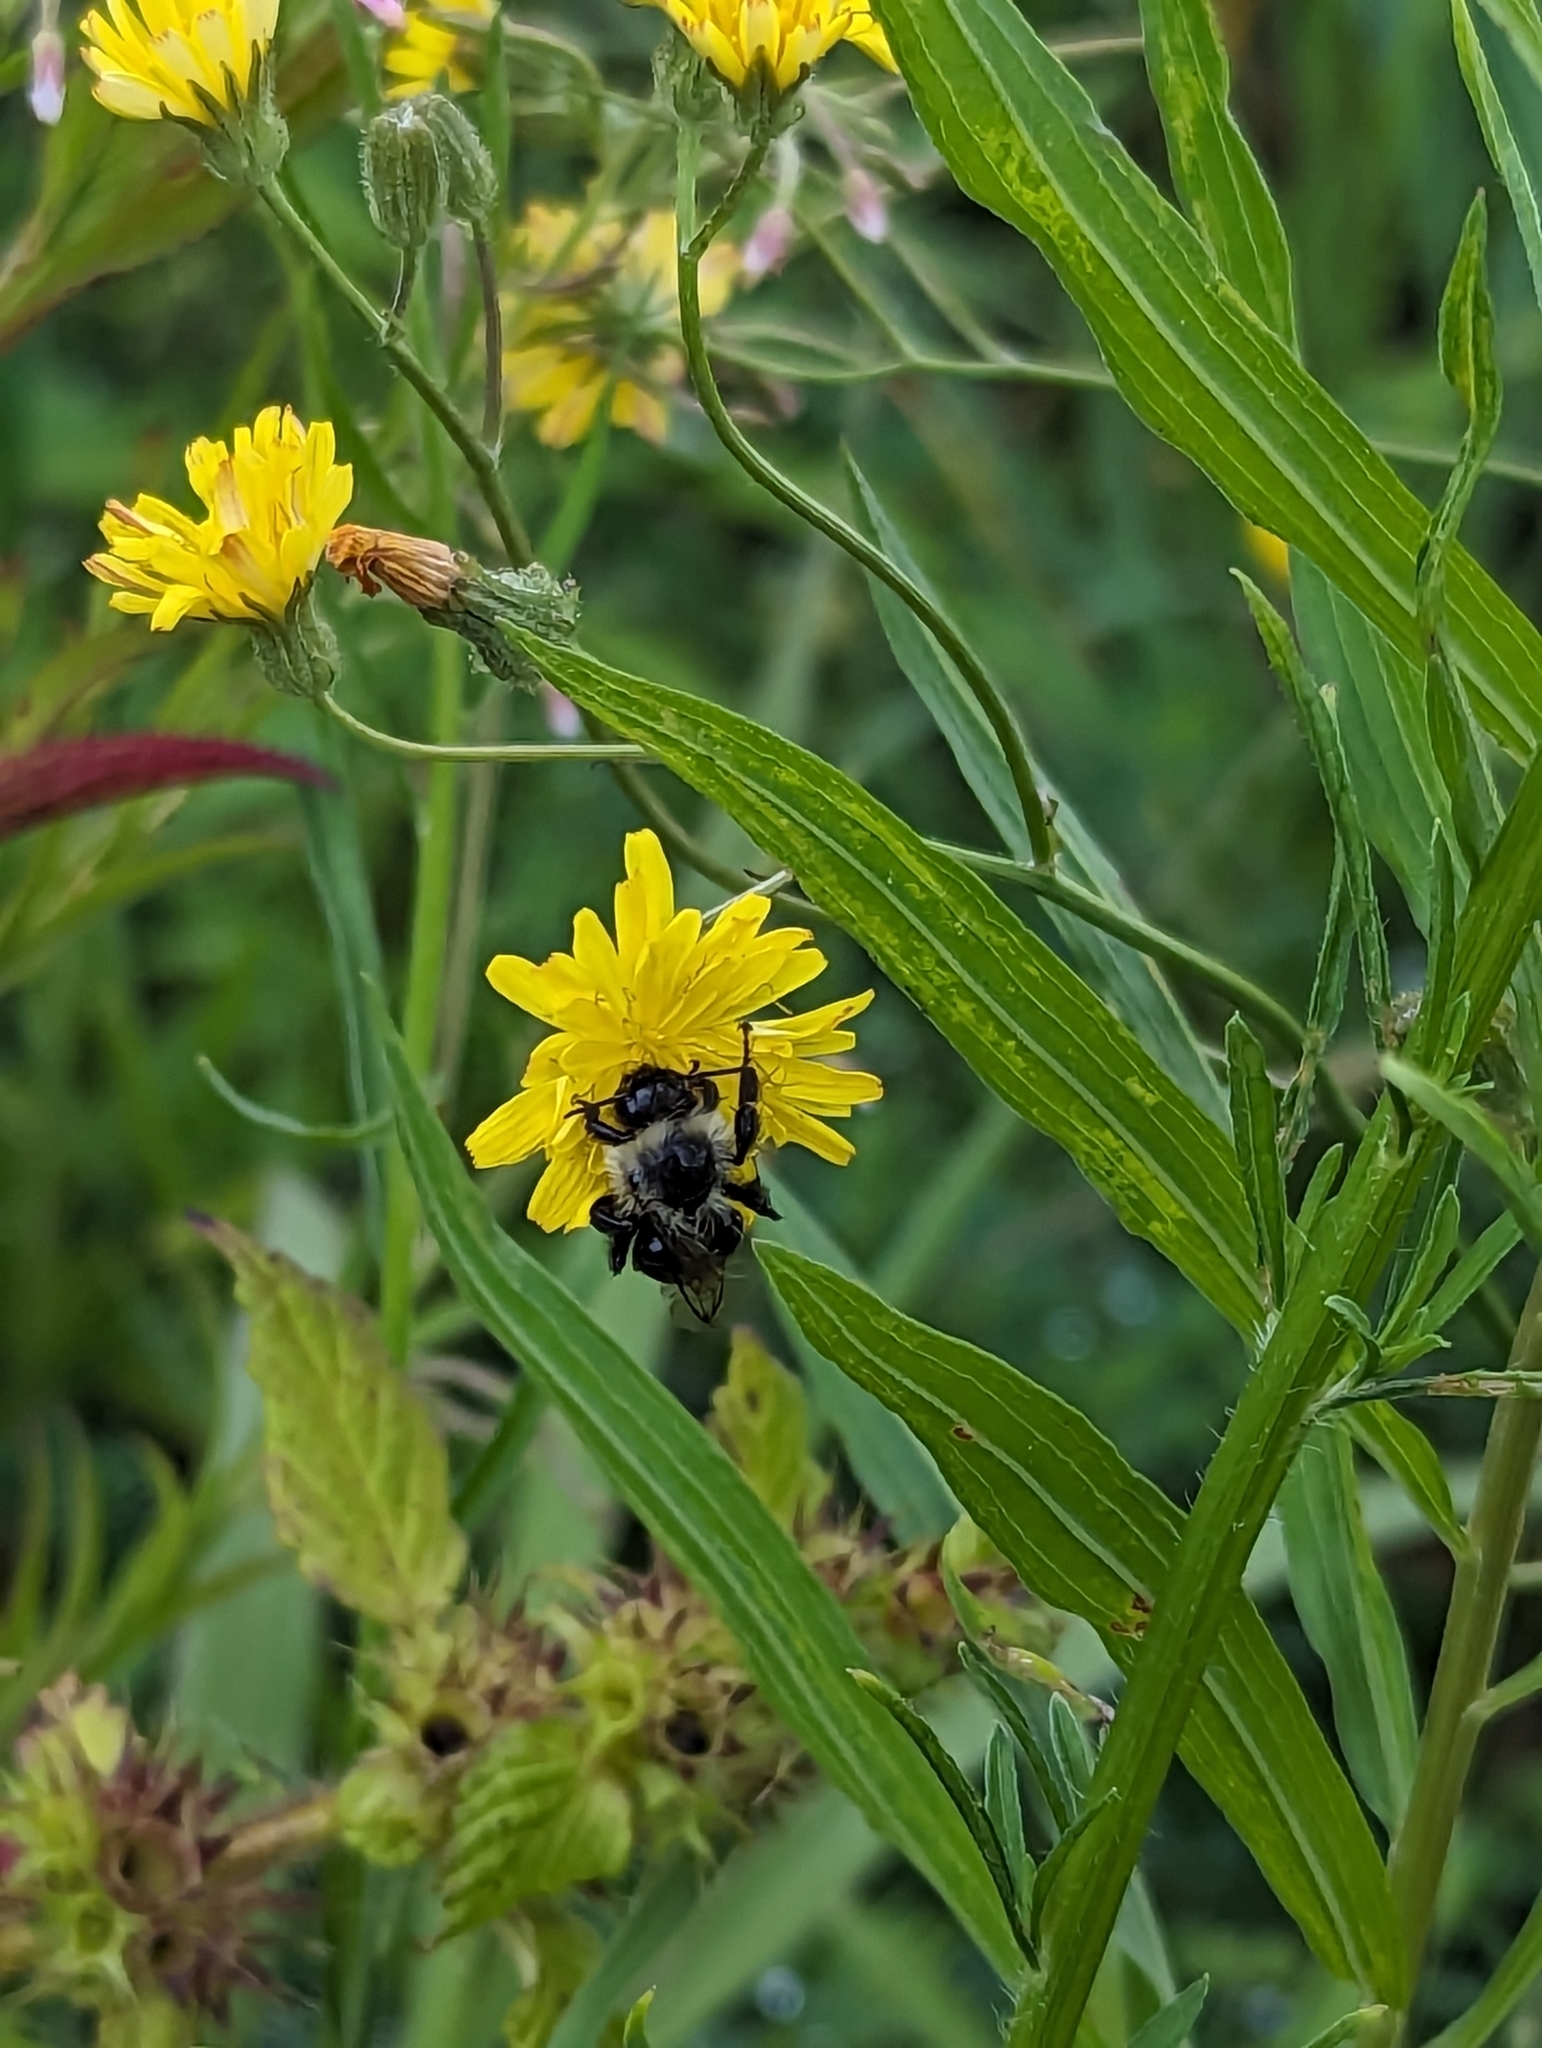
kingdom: Animalia
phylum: Arthropoda
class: Insecta
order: Hymenoptera
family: Apidae
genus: Bombus
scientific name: Bombus impatiens
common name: Common eastern bumble bee
